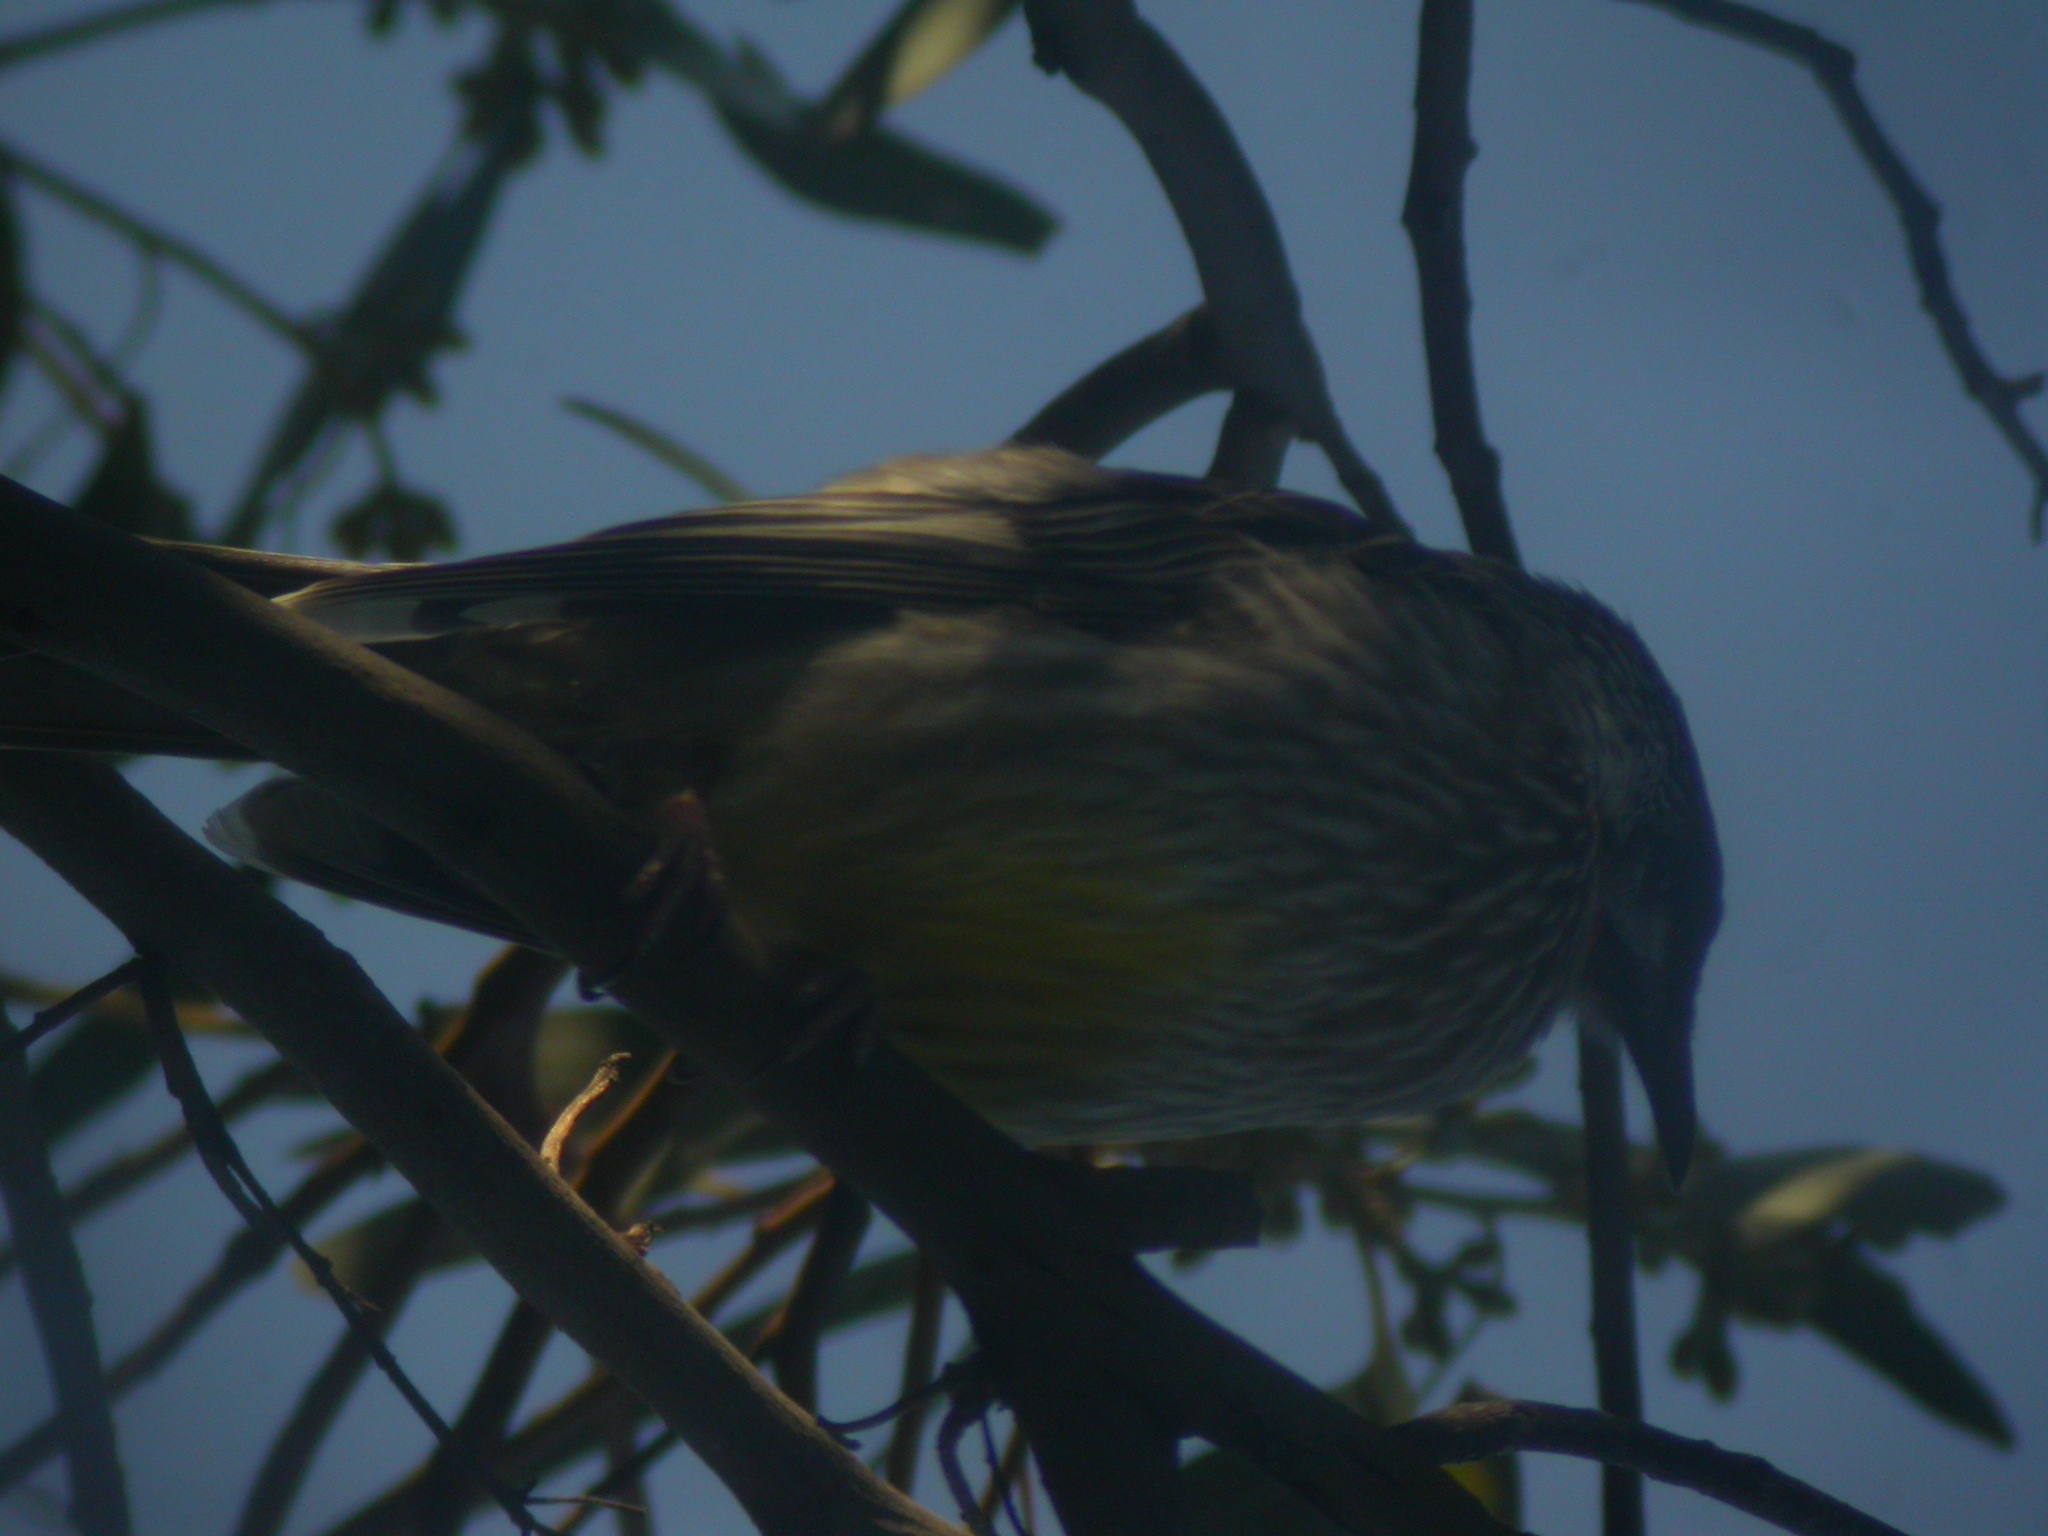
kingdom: Animalia
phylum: Chordata
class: Aves
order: Passeriformes
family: Meliphagidae
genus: Anthochaera
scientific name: Anthochaera carunculata
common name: Red wattlebird
